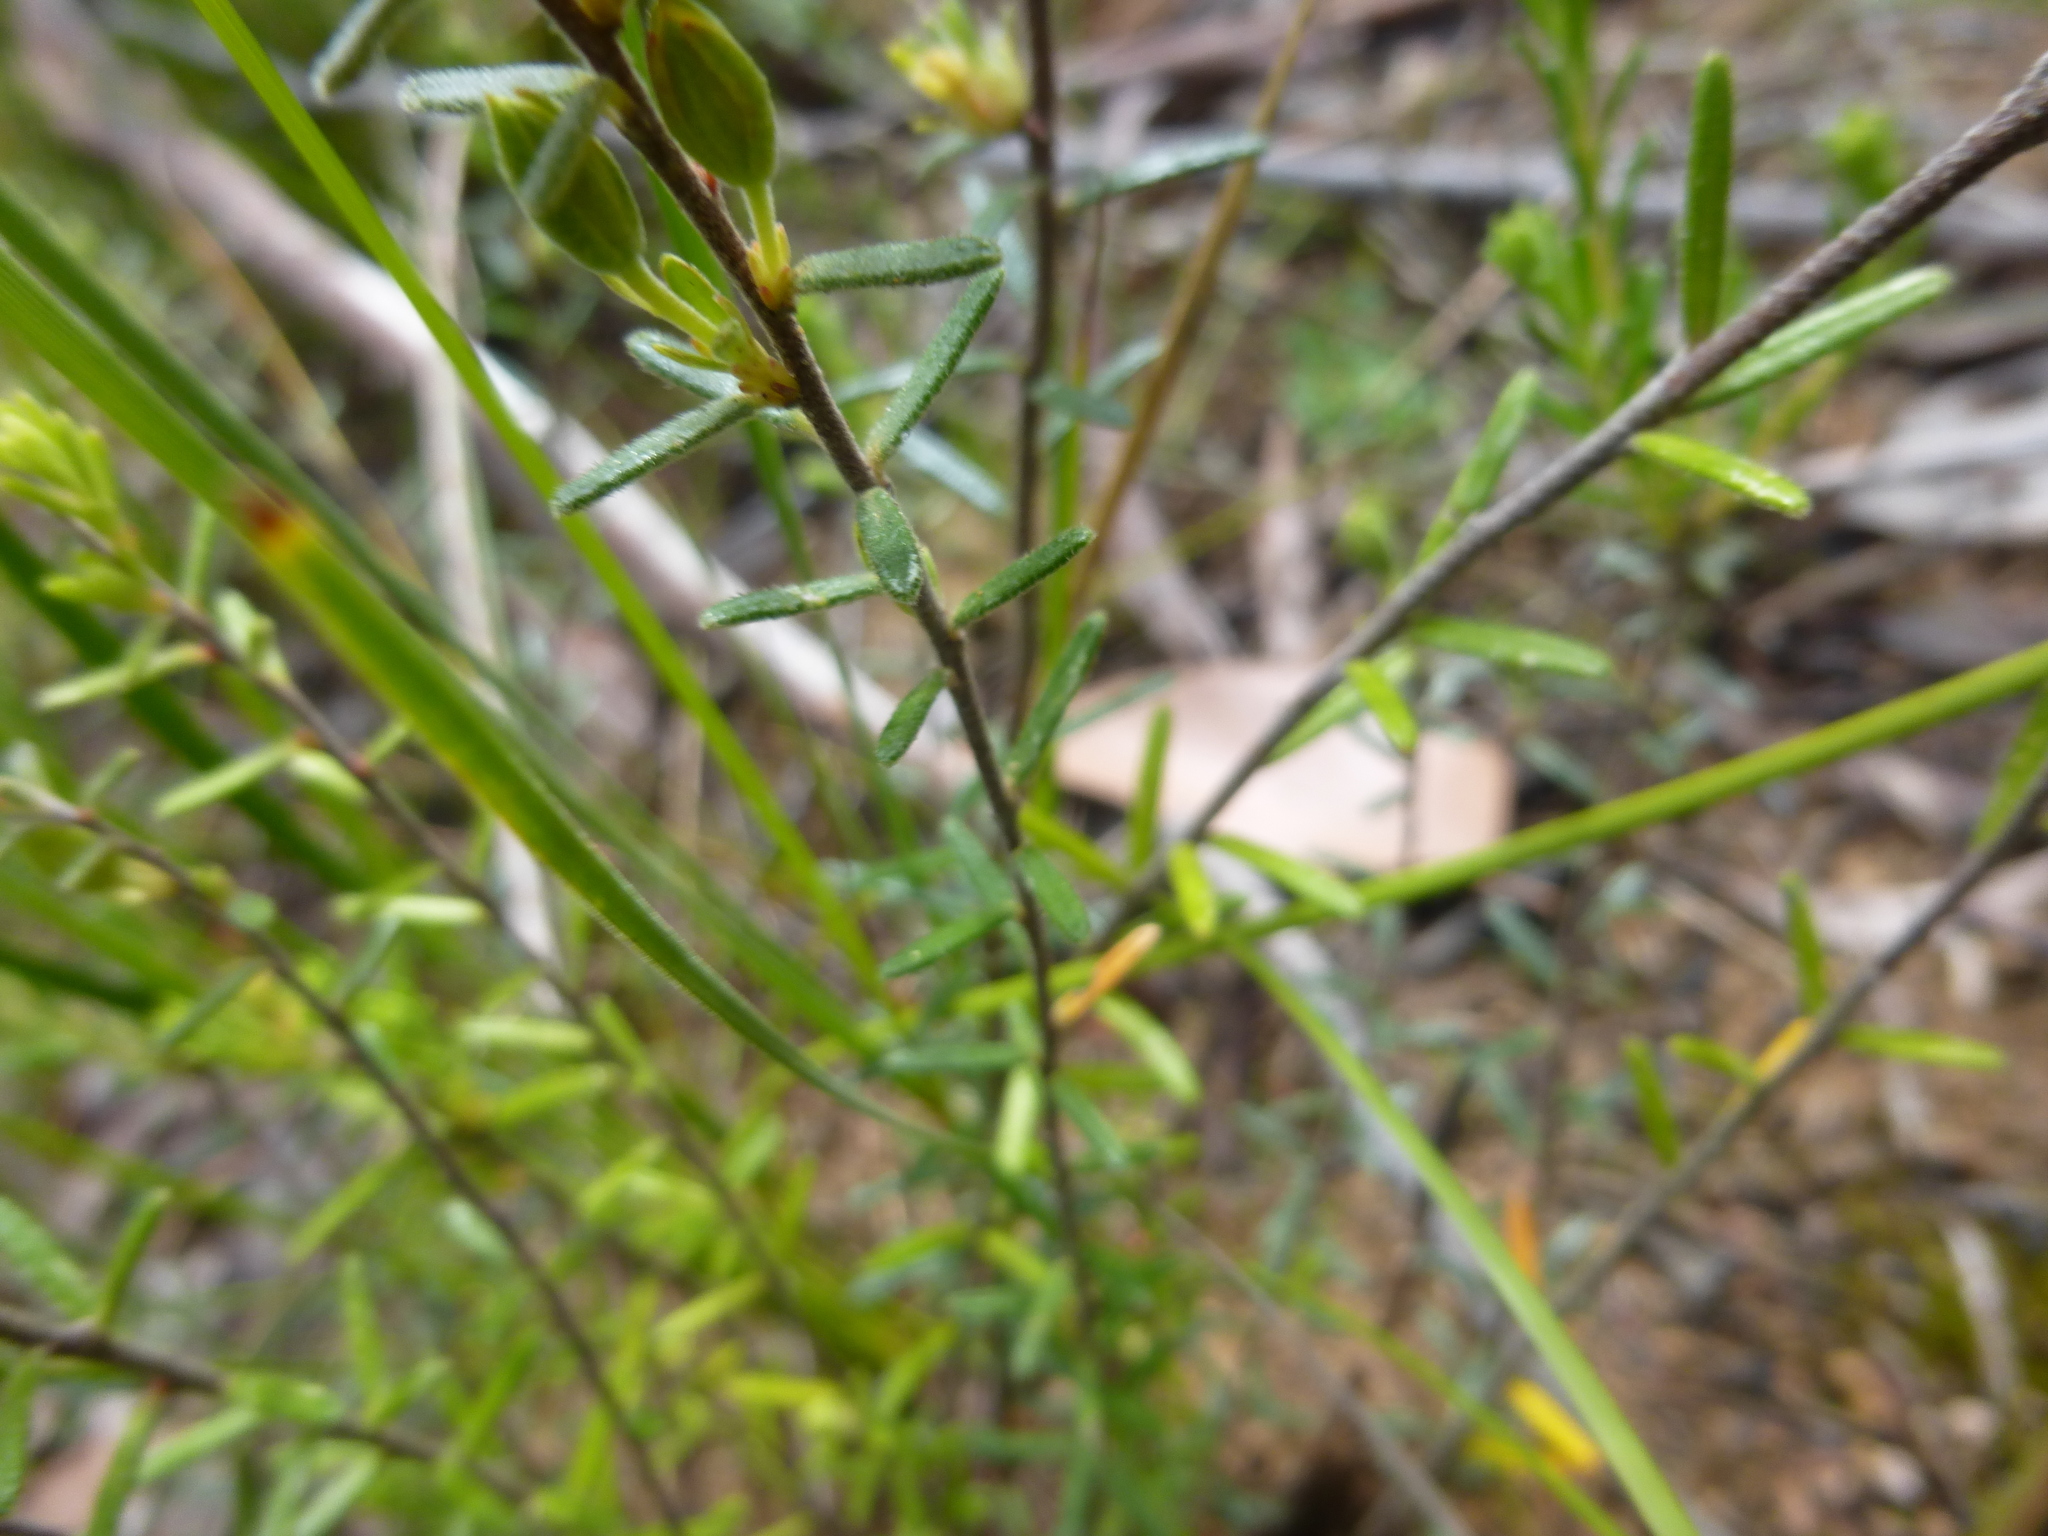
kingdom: Plantae
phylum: Tracheophyta
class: Magnoliopsida
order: Dilleniales
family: Dilleniaceae
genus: Hibbertia
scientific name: Hibbertia australis
